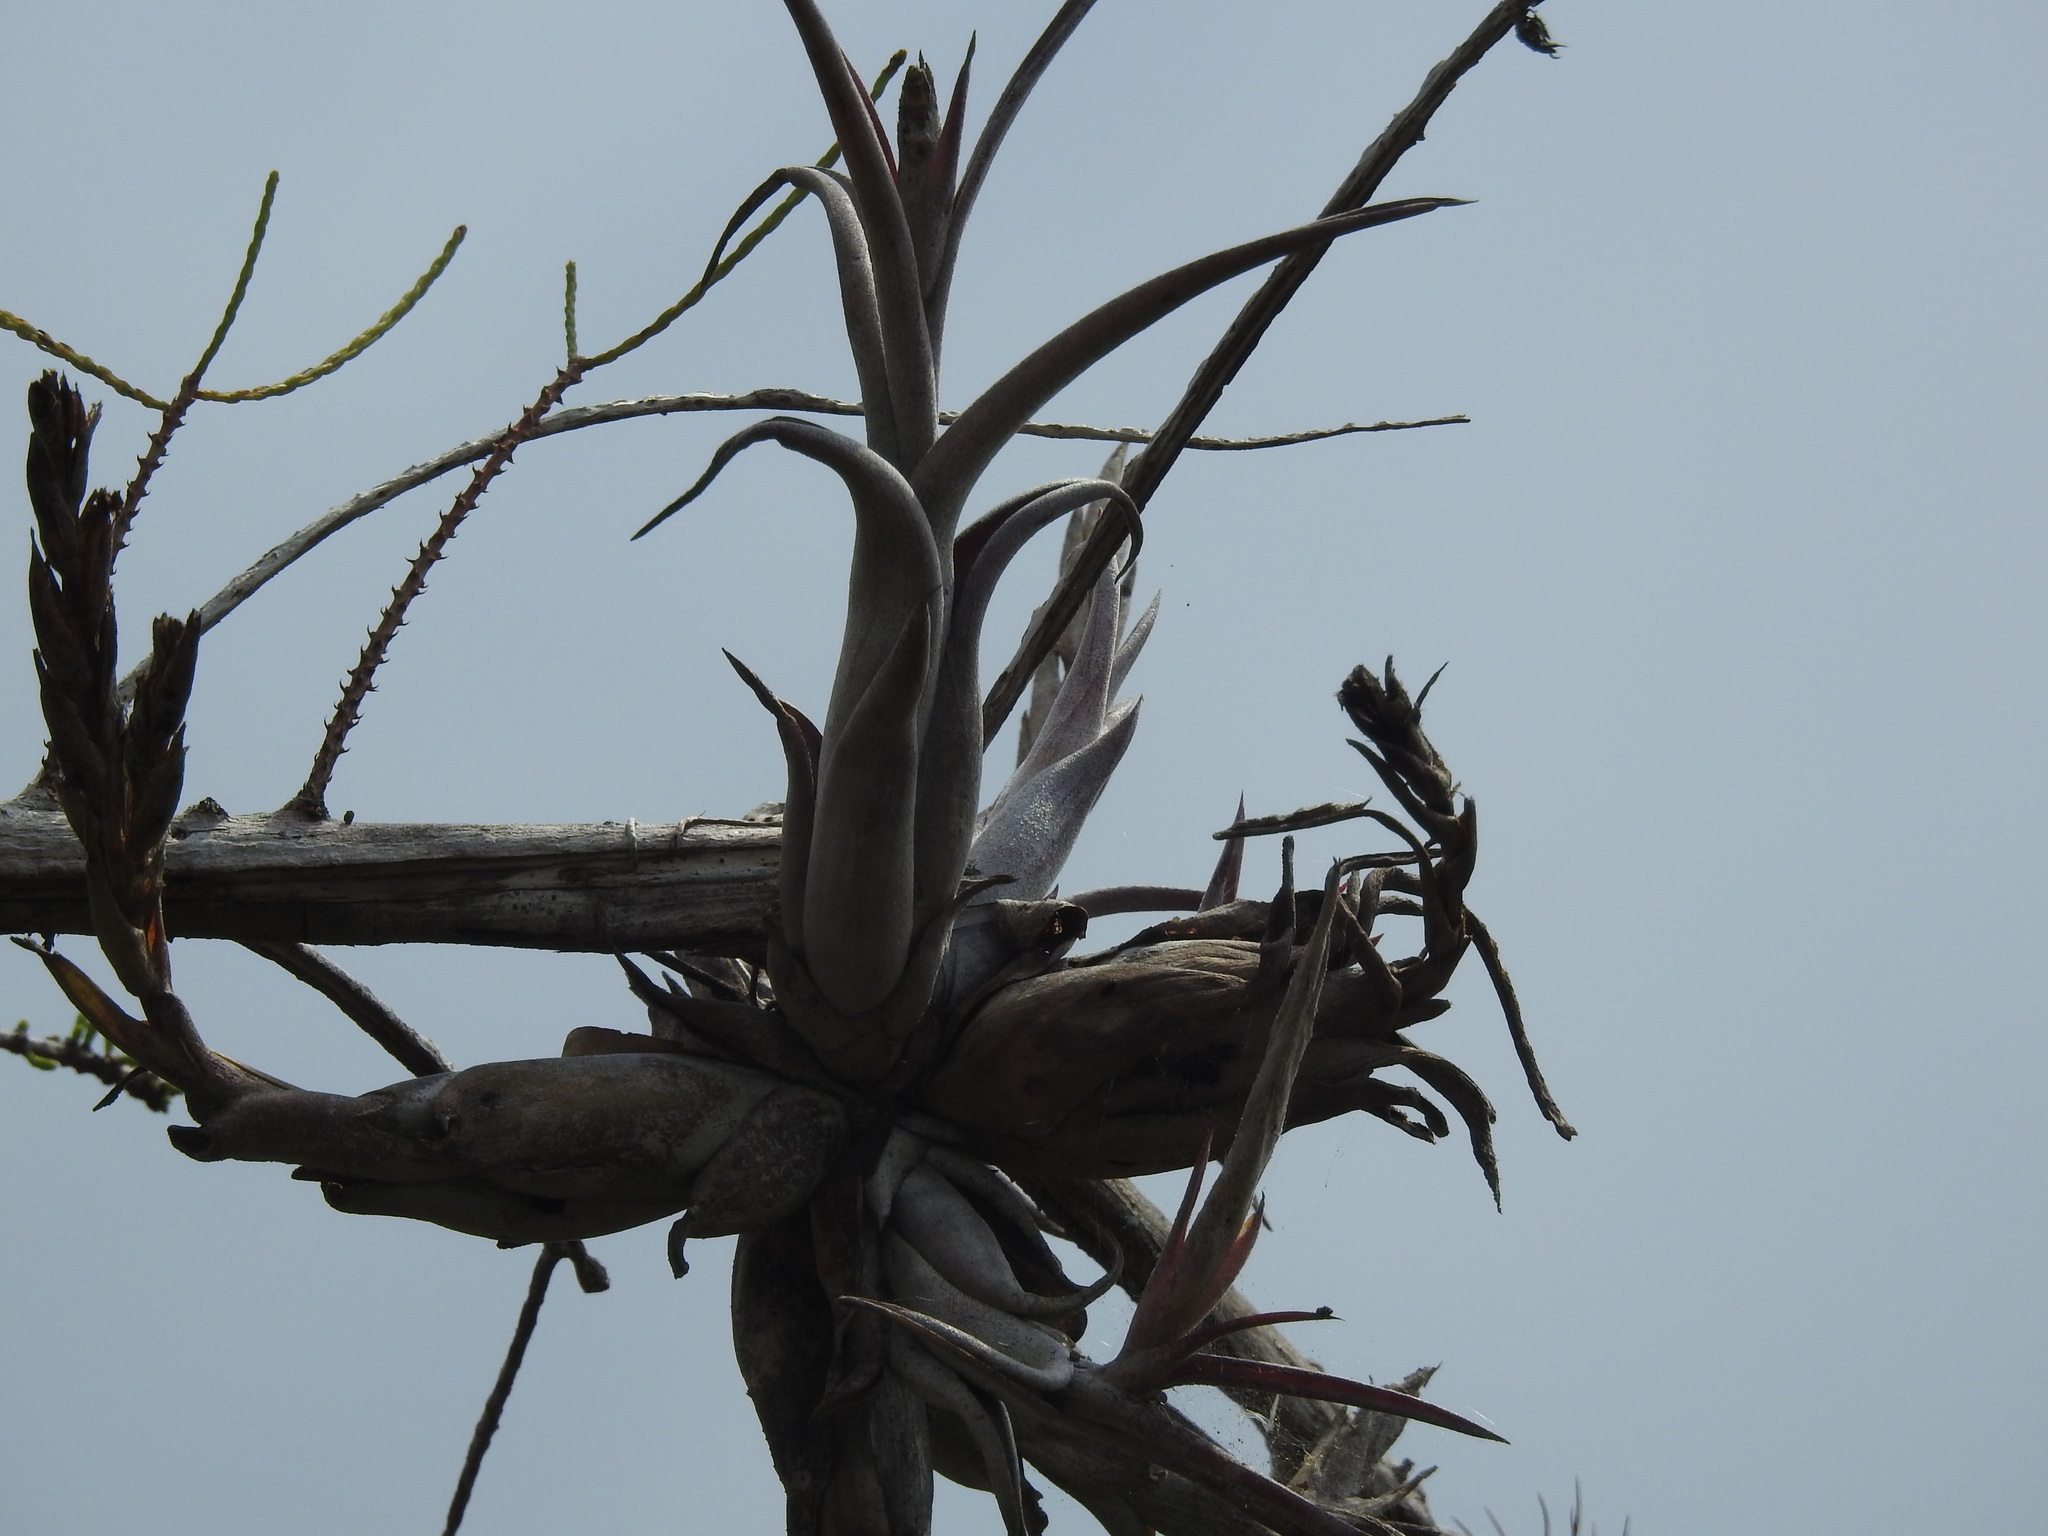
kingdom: Plantae
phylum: Tracheophyta
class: Liliopsida
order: Poales
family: Bromeliaceae
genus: Tillandsia
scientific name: Tillandsia paucifolia
